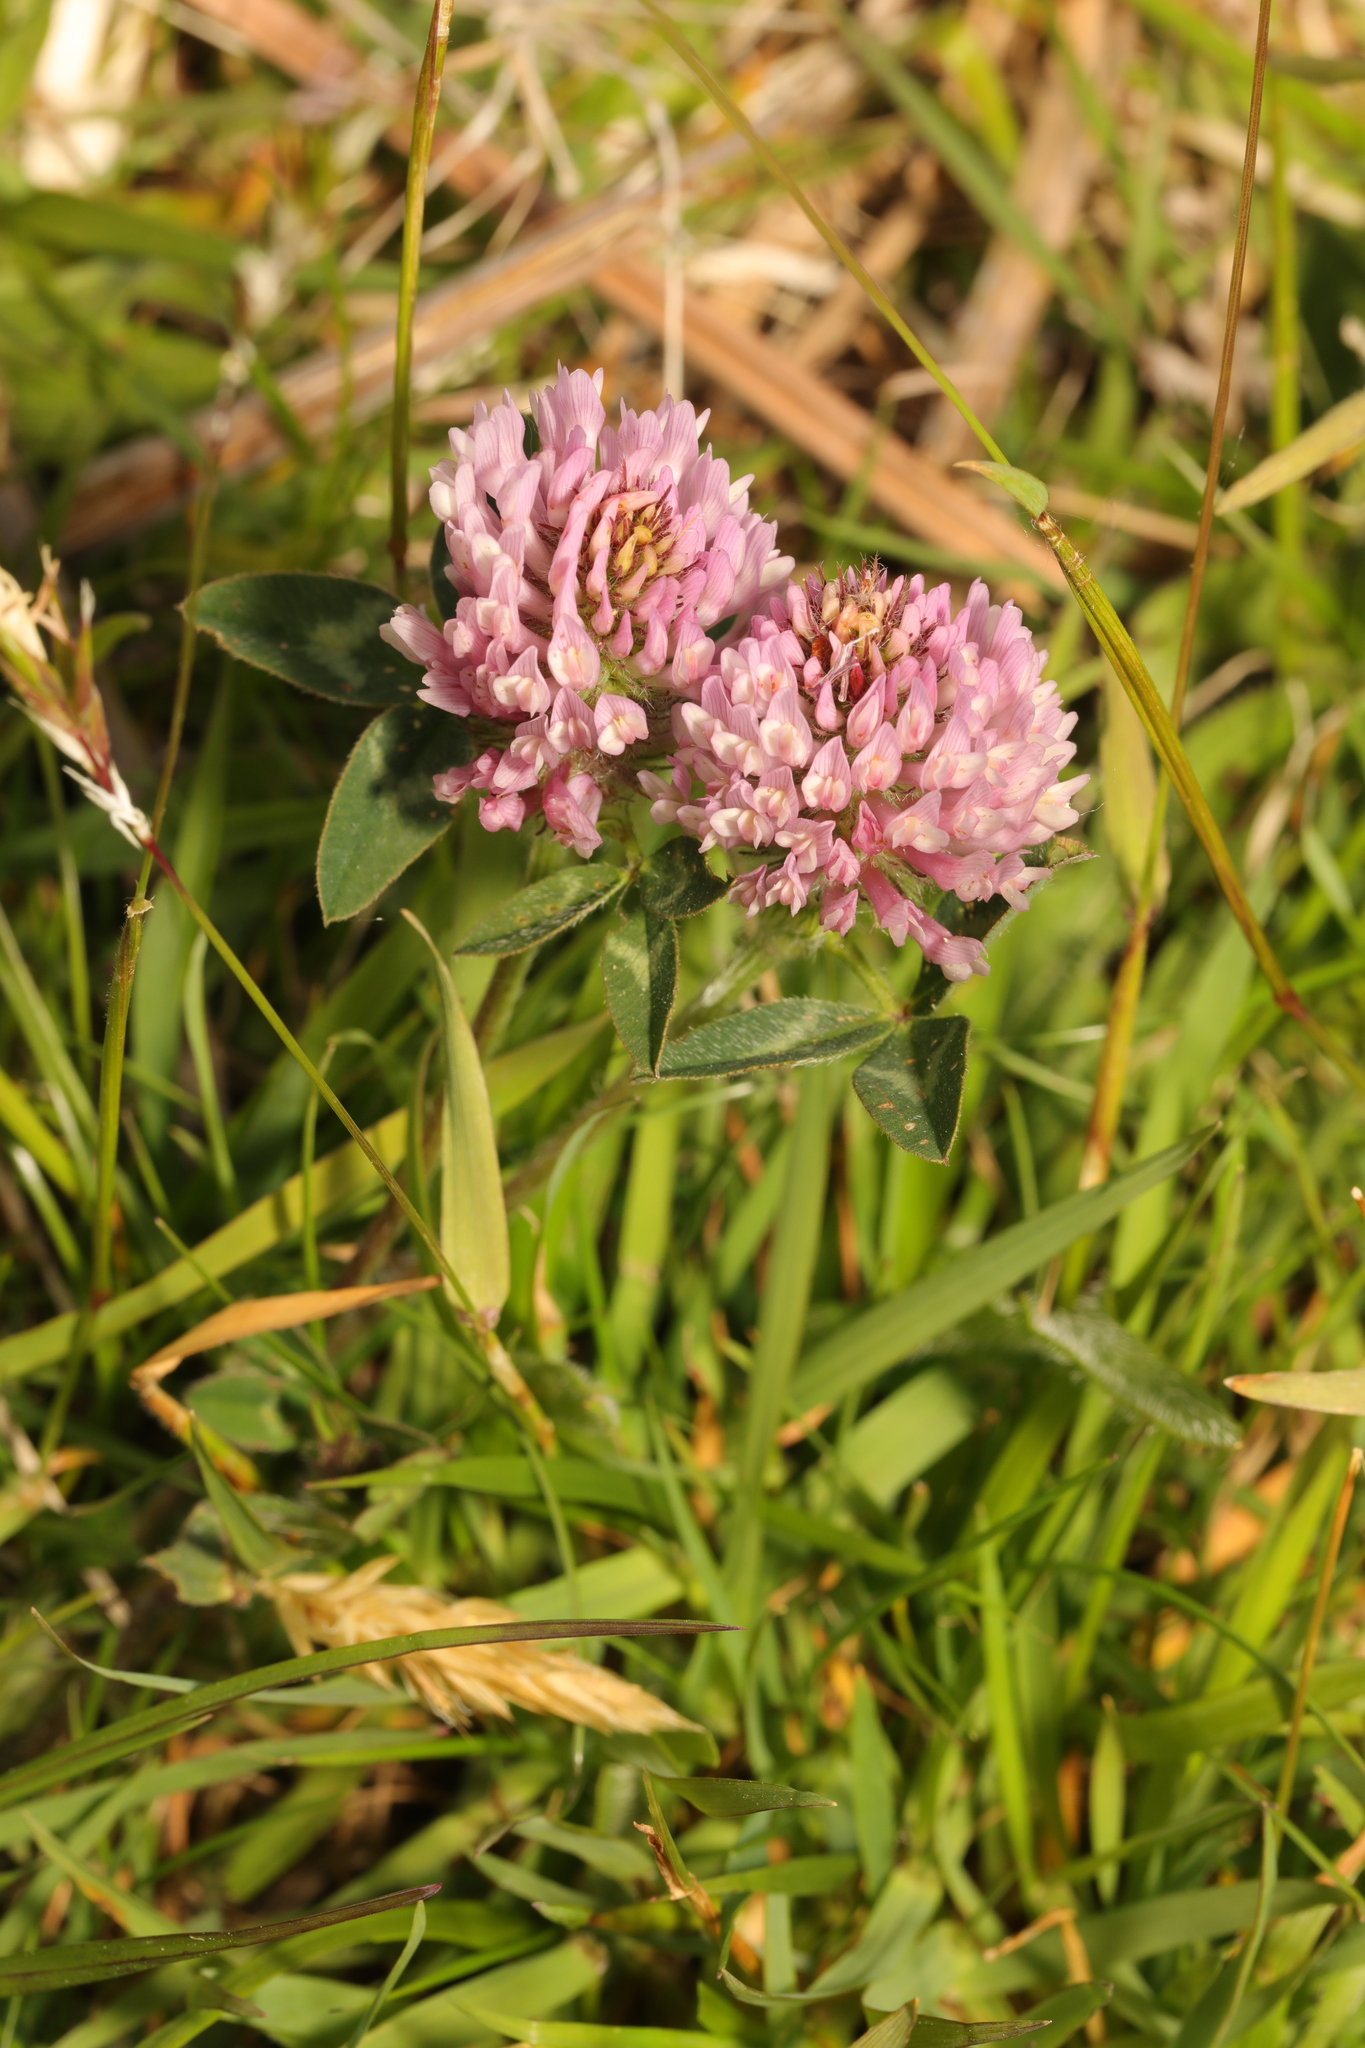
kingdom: Plantae
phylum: Tracheophyta
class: Magnoliopsida
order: Fabales
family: Fabaceae
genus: Trifolium
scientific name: Trifolium pratense
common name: Red clover
